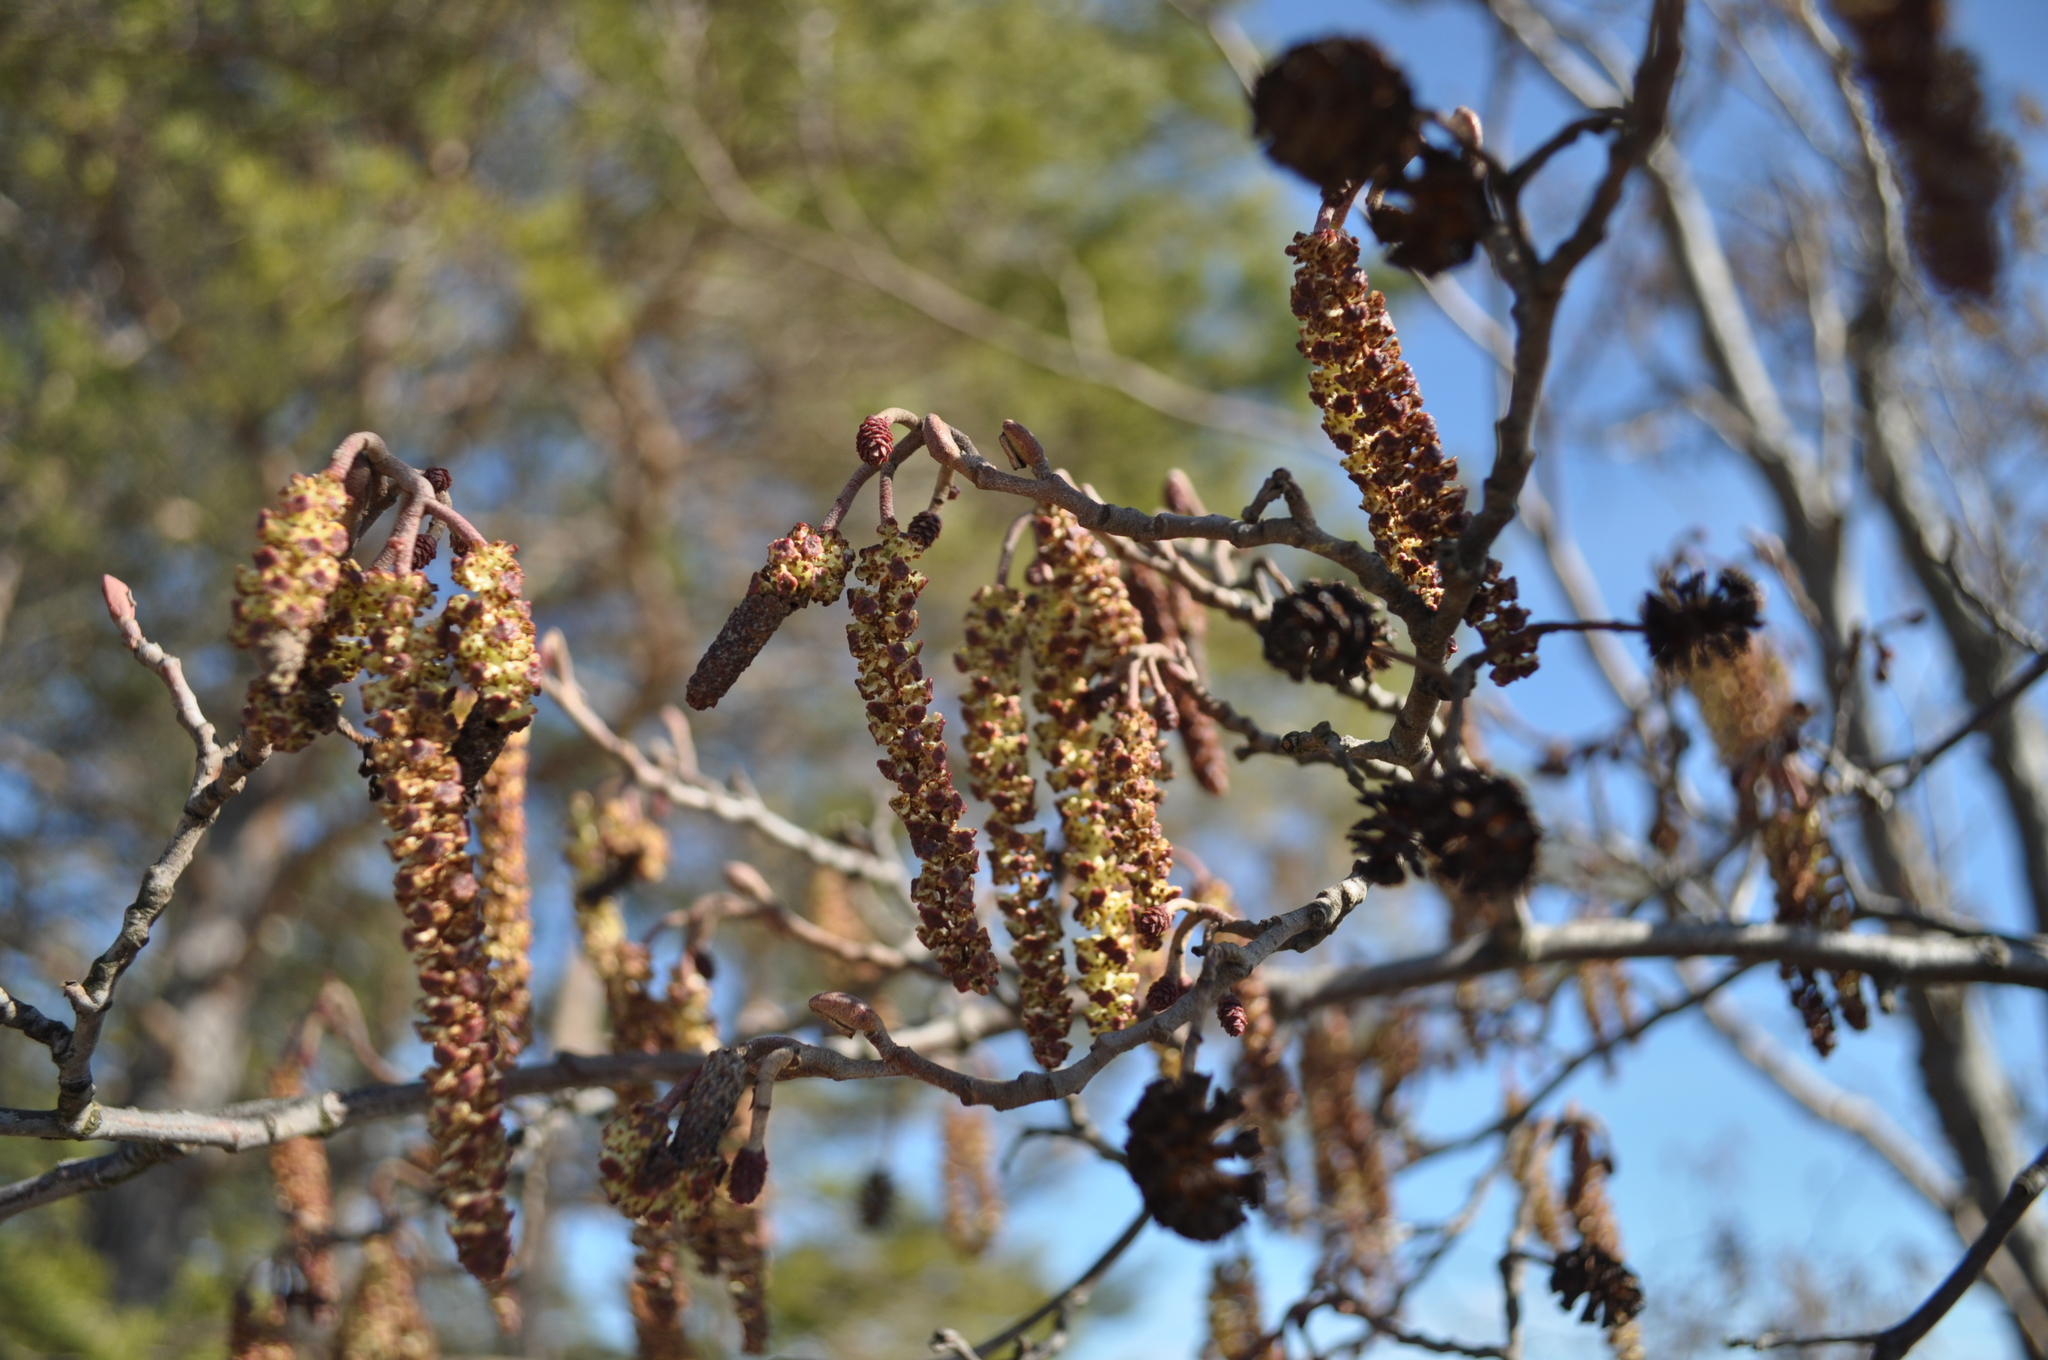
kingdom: Plantae
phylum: Tracheophyta
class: Magnoliopsida
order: Fagales
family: Betulaceae
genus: Alnus
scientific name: Alnus glutinosa
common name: Black alder
